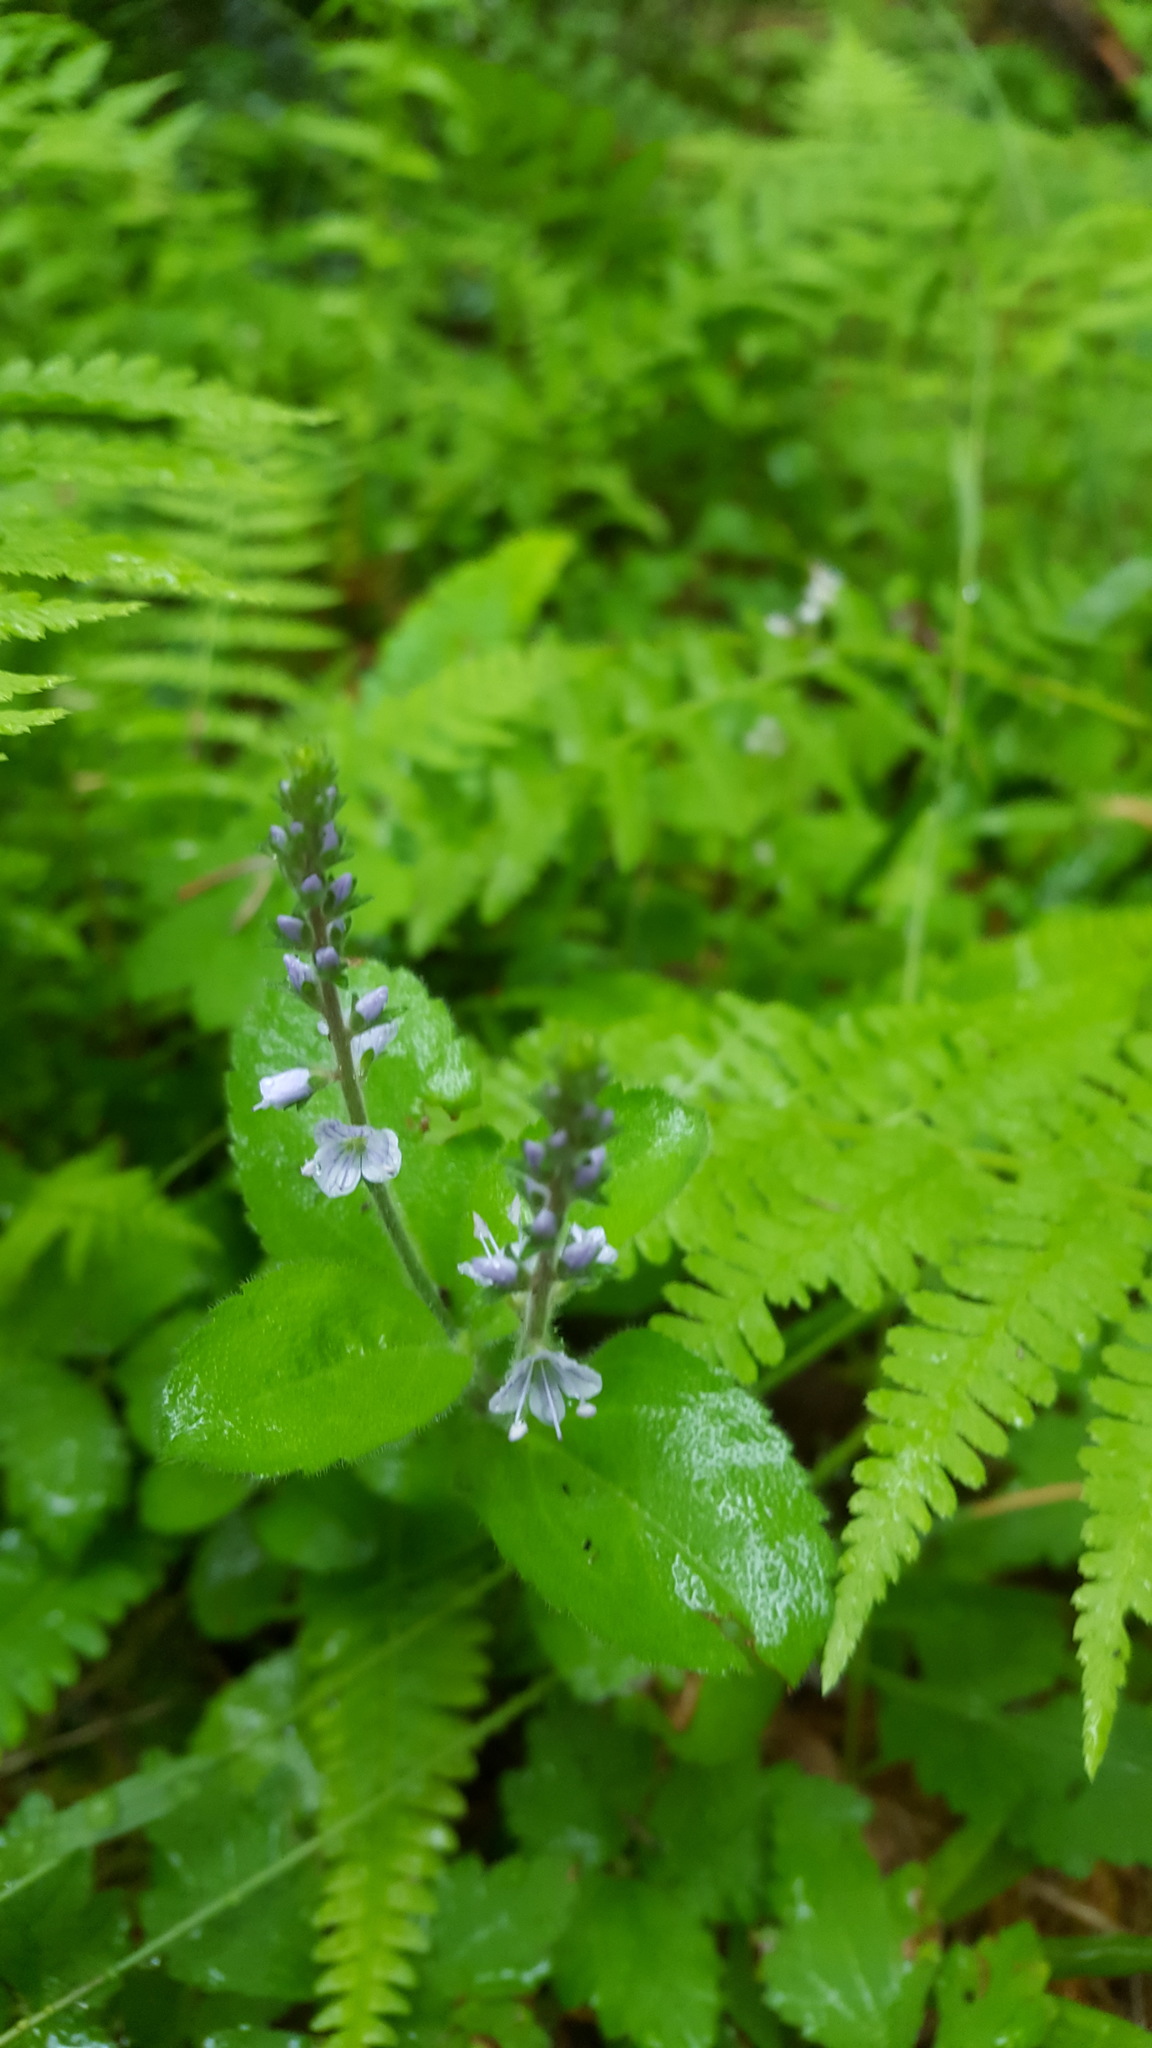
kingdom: Plantae
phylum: Tracheophyta
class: Magnoliopsida
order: Lamiales
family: Plantaginaceae
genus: Veronica
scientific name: Veronica officinalis
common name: Common speedwell
